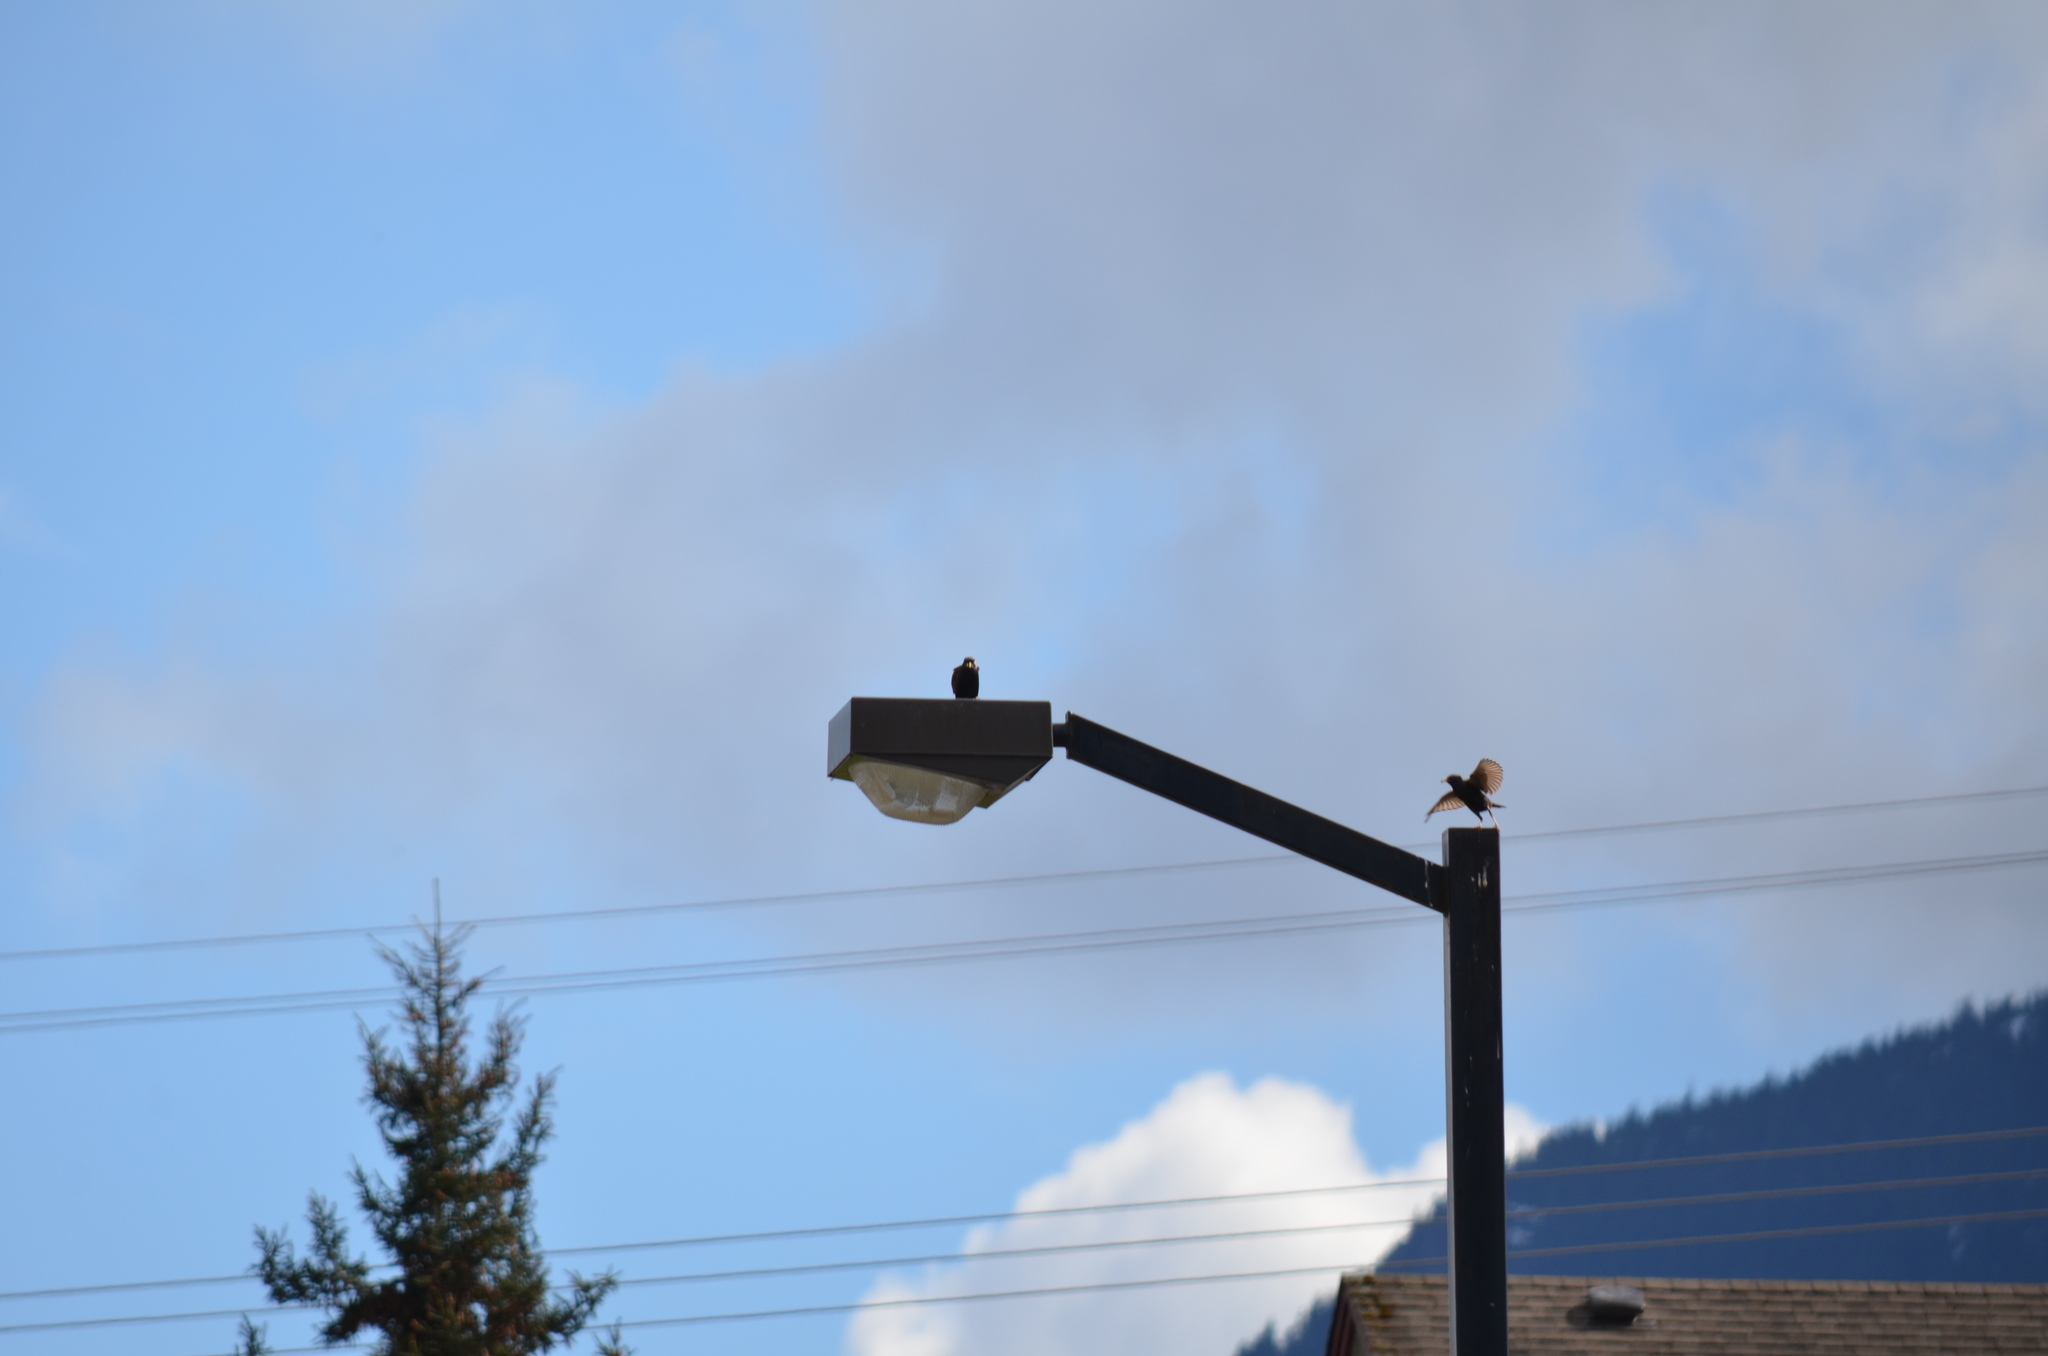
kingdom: Animalia
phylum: Chordata
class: Aves
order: Passeriformes
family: Sturnidae
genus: Sturnus
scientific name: Sturnus vulgaris
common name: Common starling
